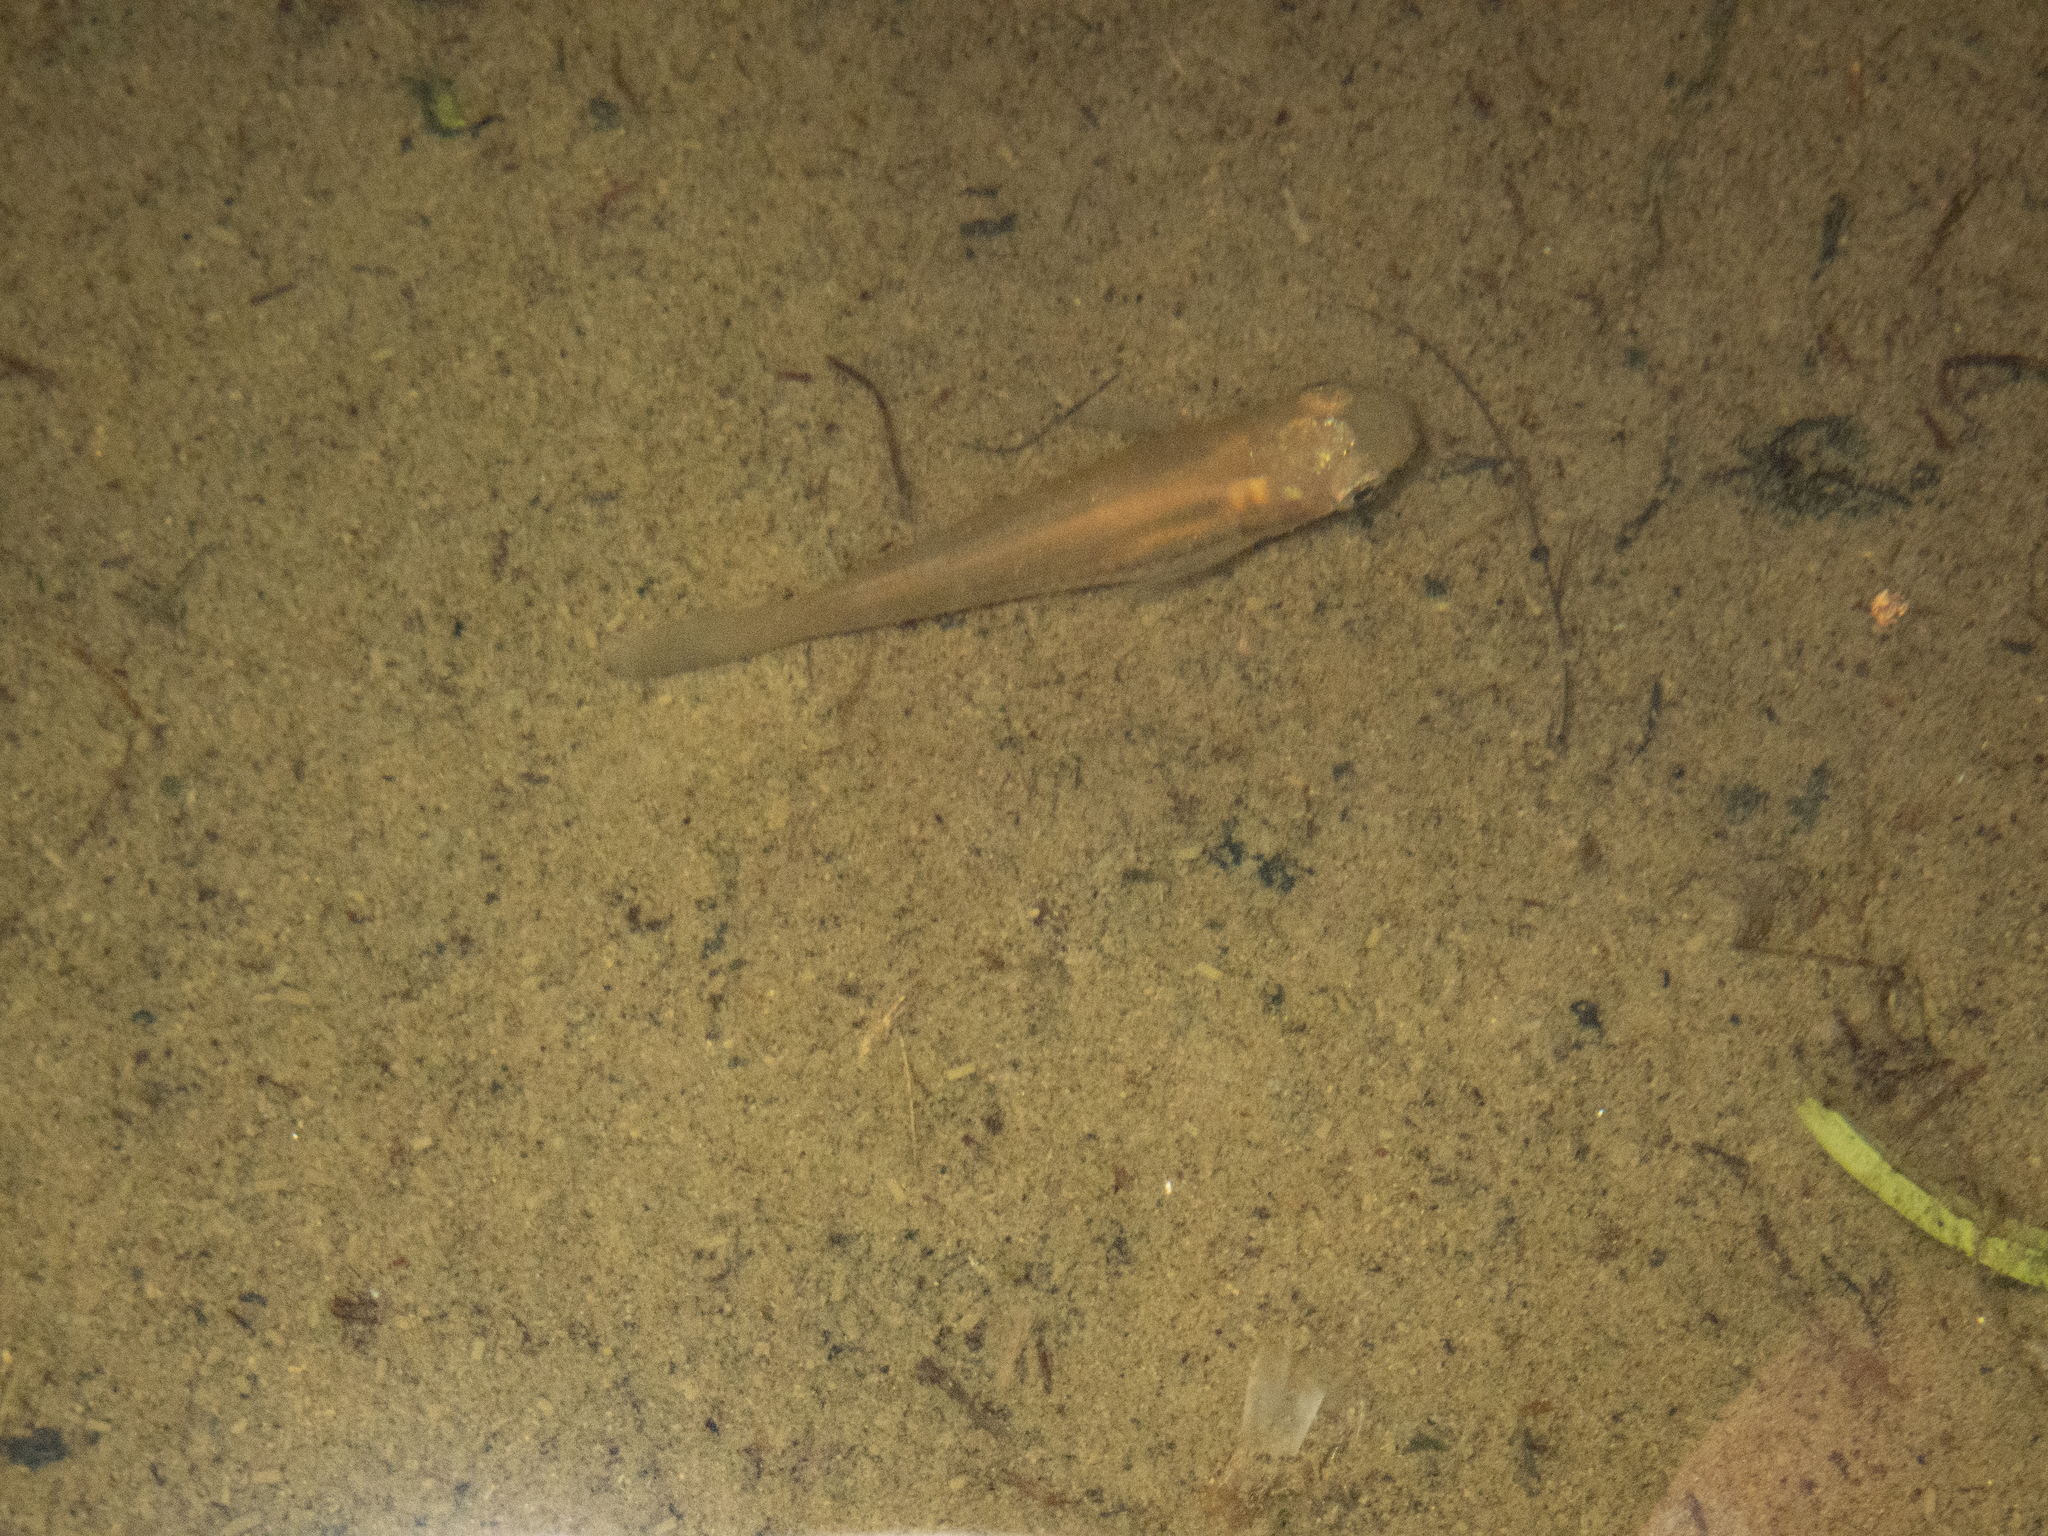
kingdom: Animalia
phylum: Chordata
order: Cyprinodontiformes
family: Poeciliidae
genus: Xiphophorus
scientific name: Xiphophorus hellerii
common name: Green swordtail
